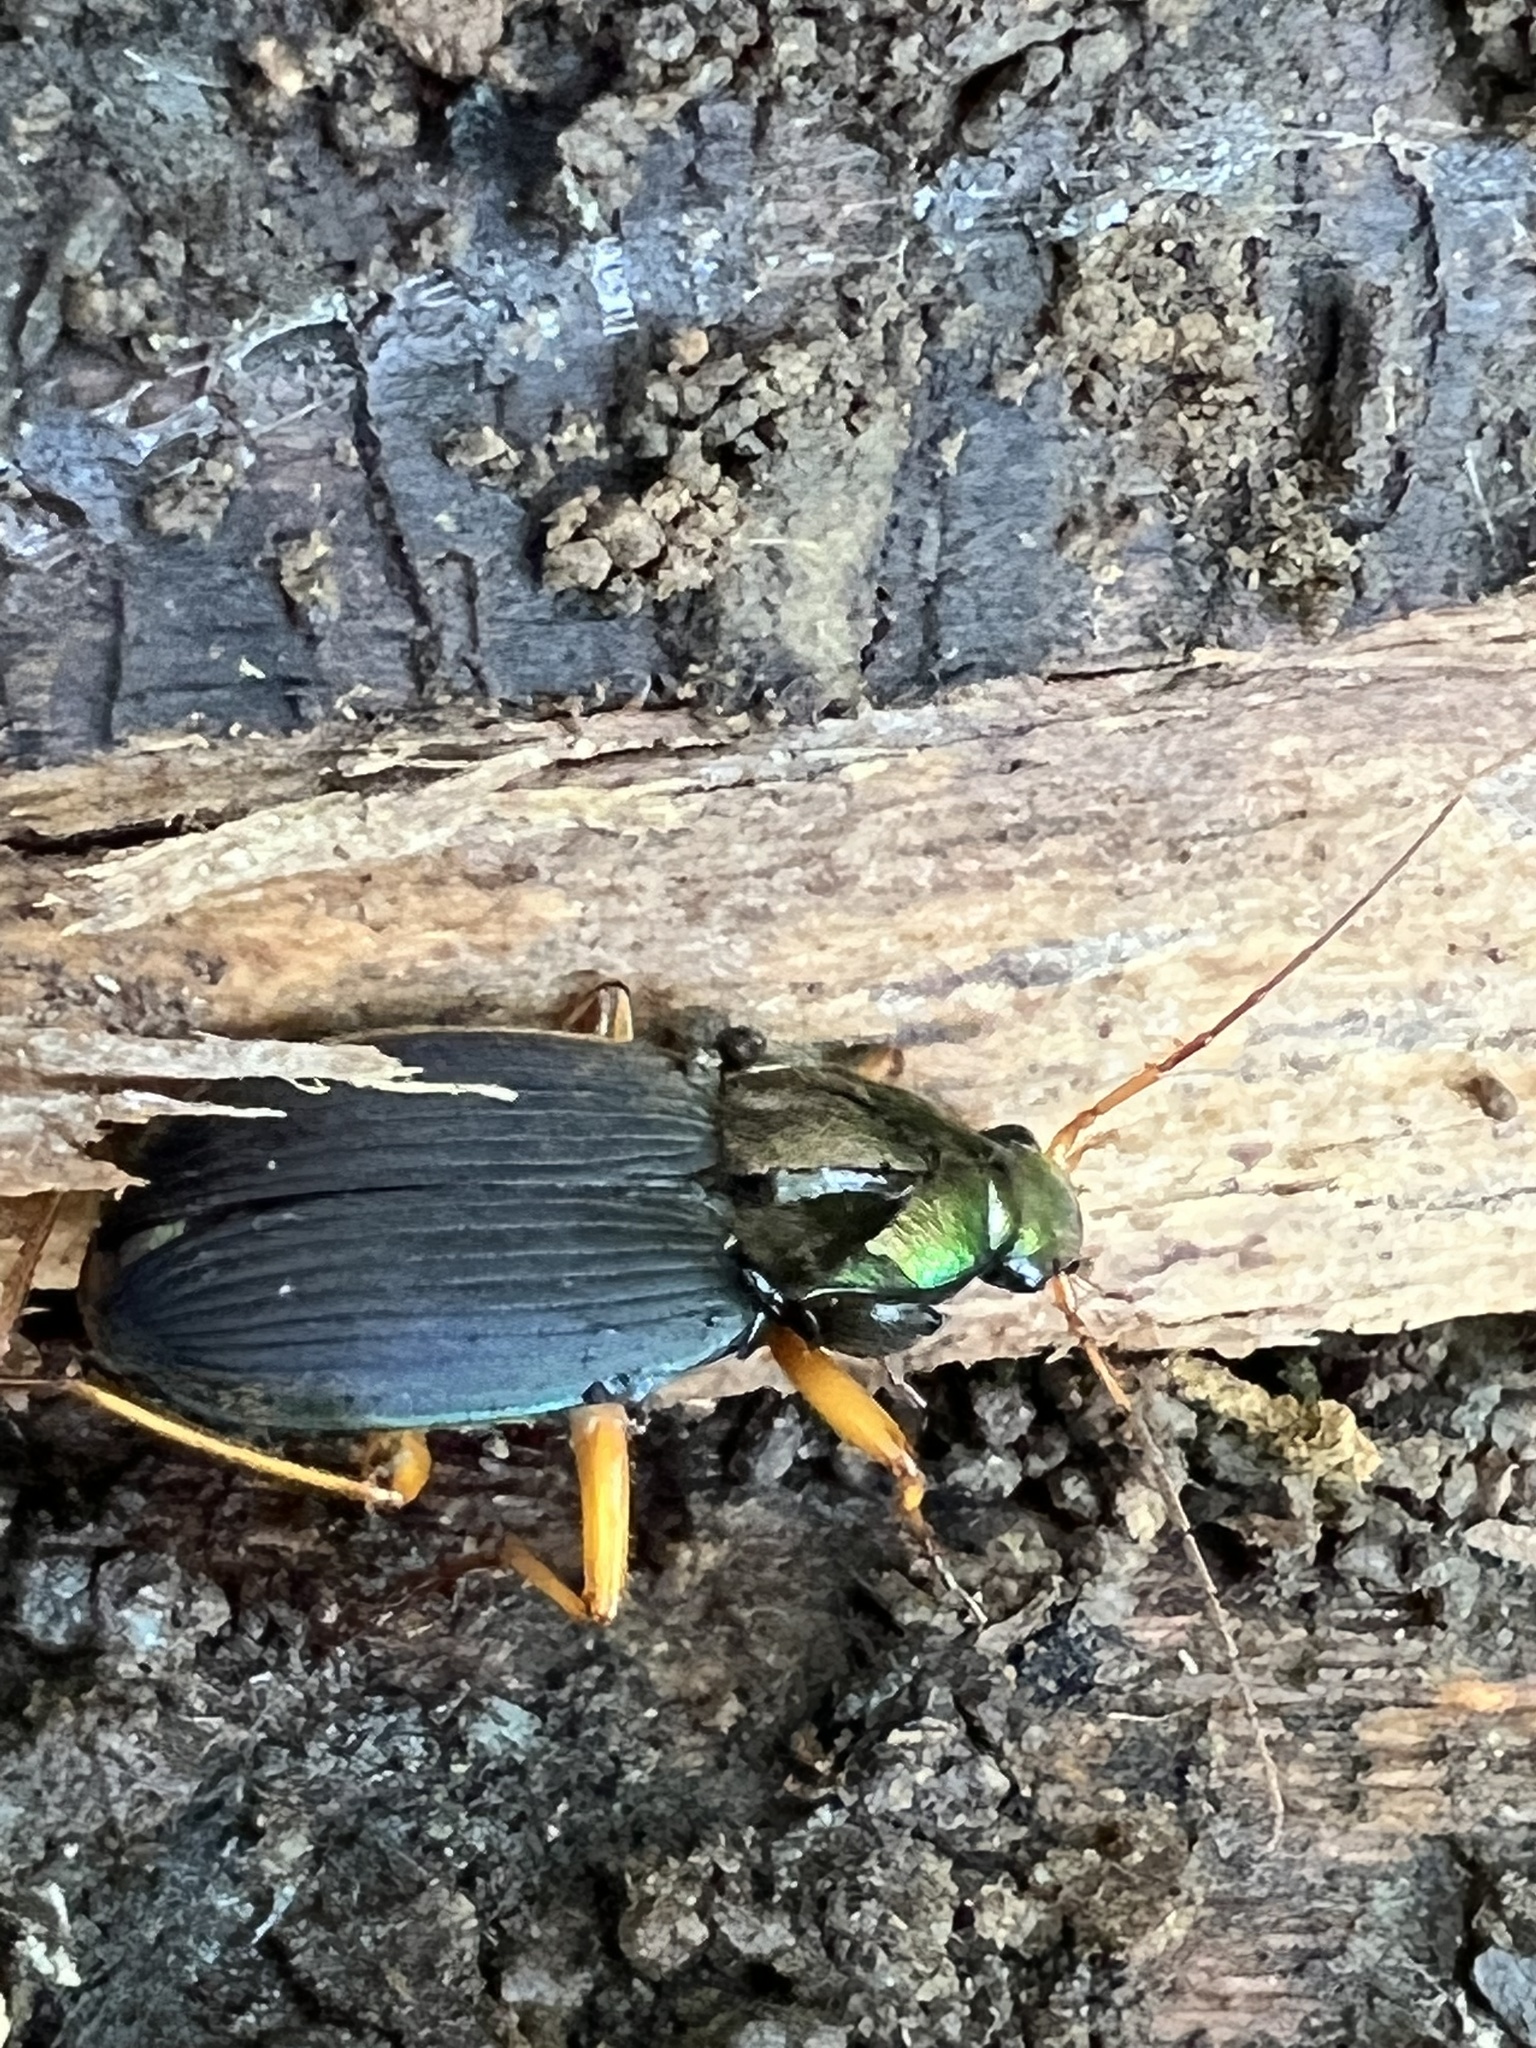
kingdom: Animalia
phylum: Arthropoda
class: Insecta
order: Coleoptera
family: Carabidae
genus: Chlaenius
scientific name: Chlaenius impunctifrons
